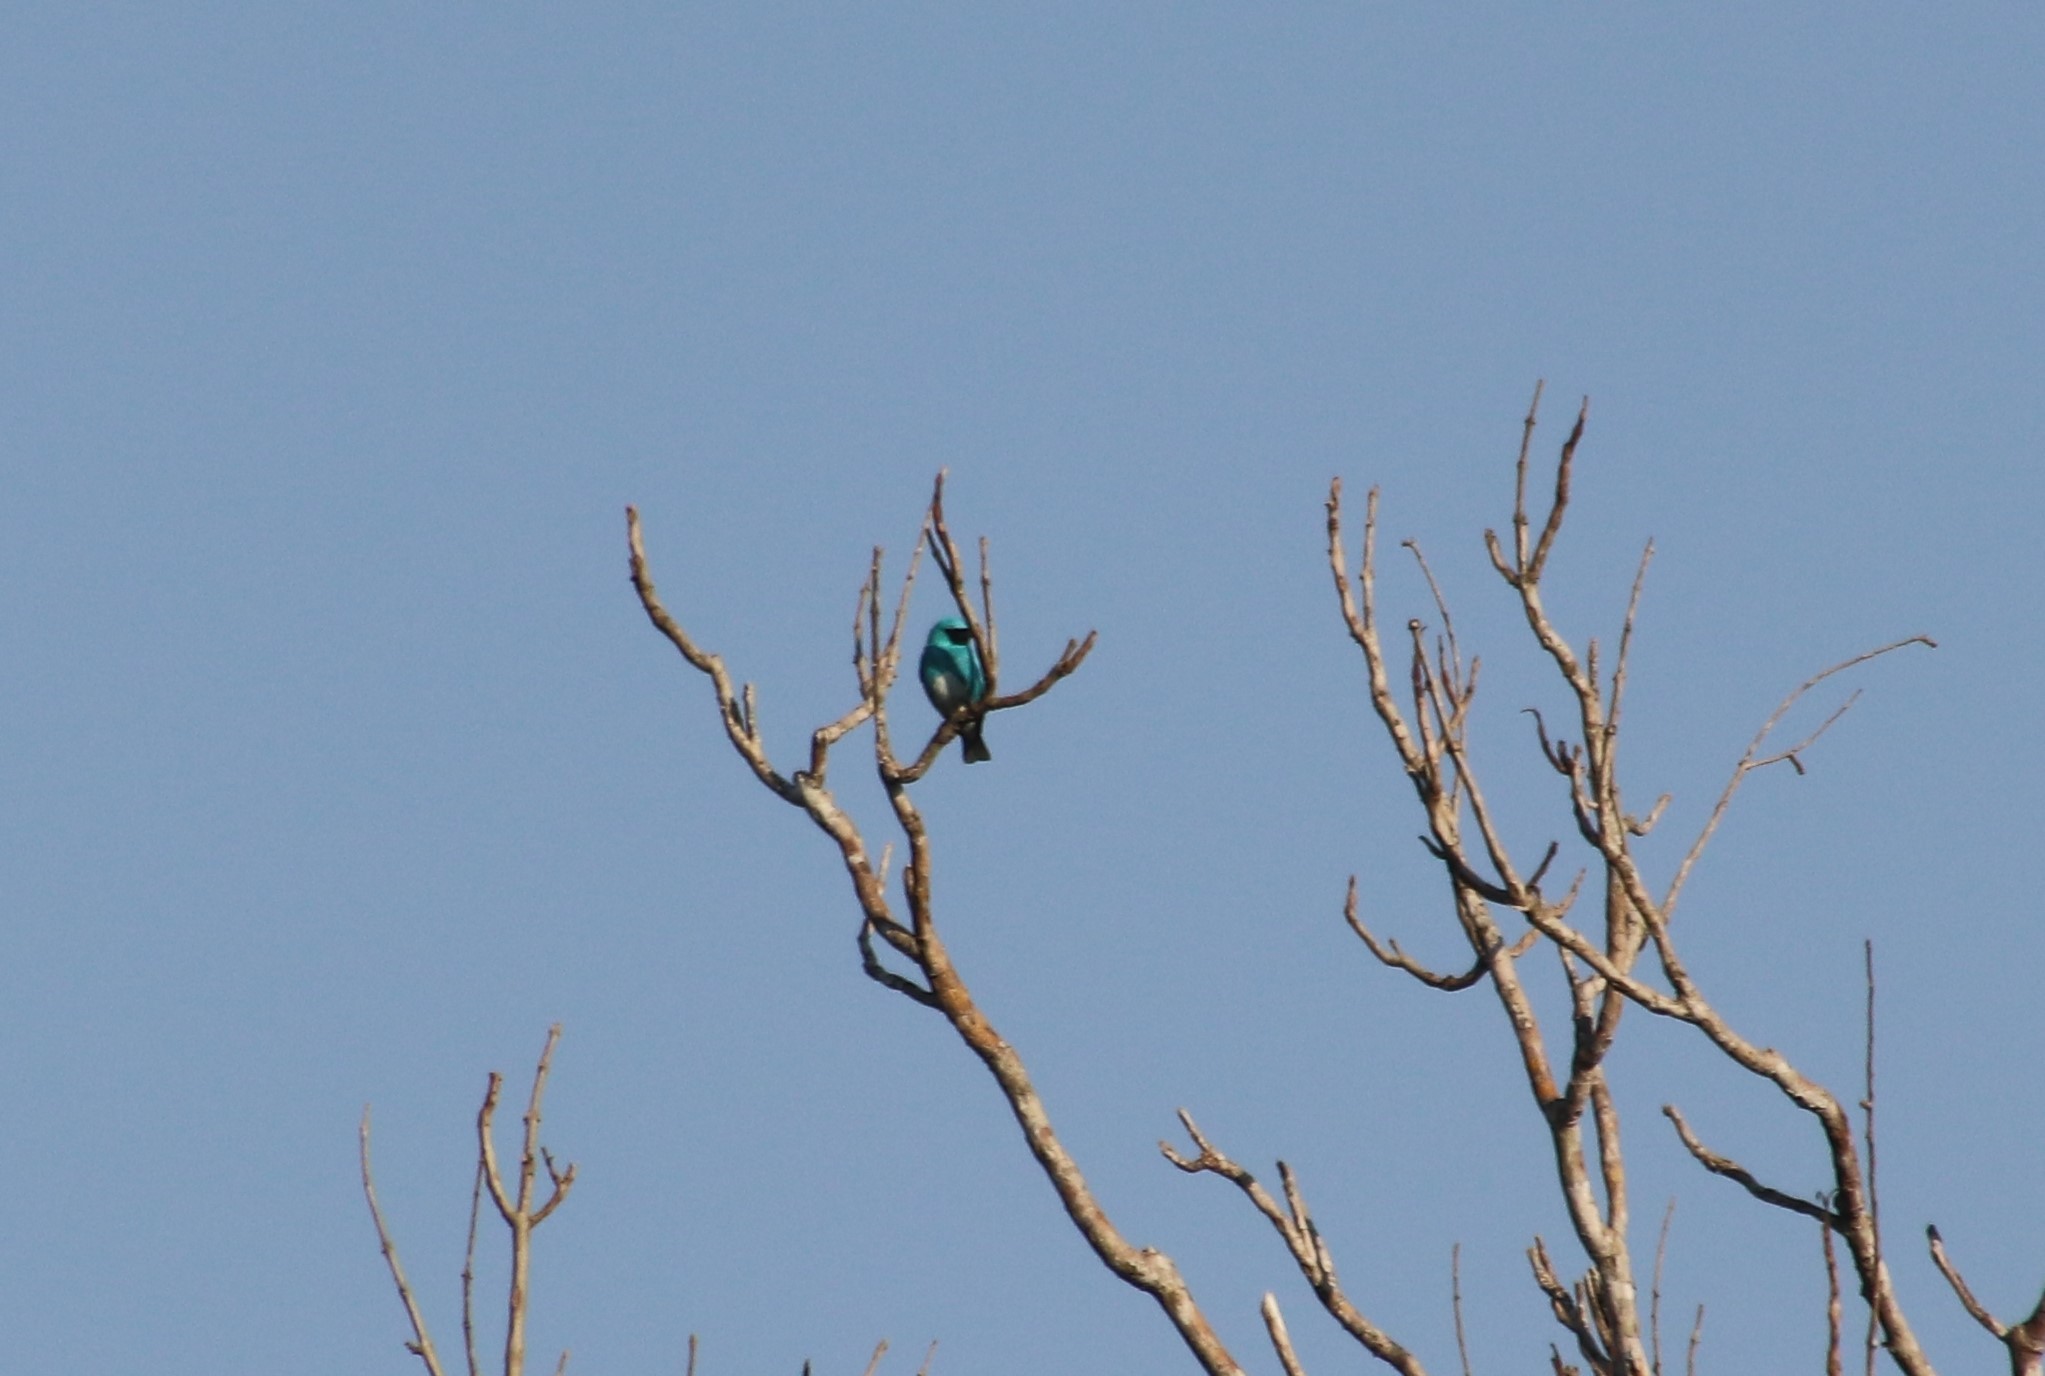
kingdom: Animalia
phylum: Chordata
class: Aves
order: Passeriformes
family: Thraupidae
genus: Tersina
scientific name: Tersina viridis
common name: Swallow tanager
